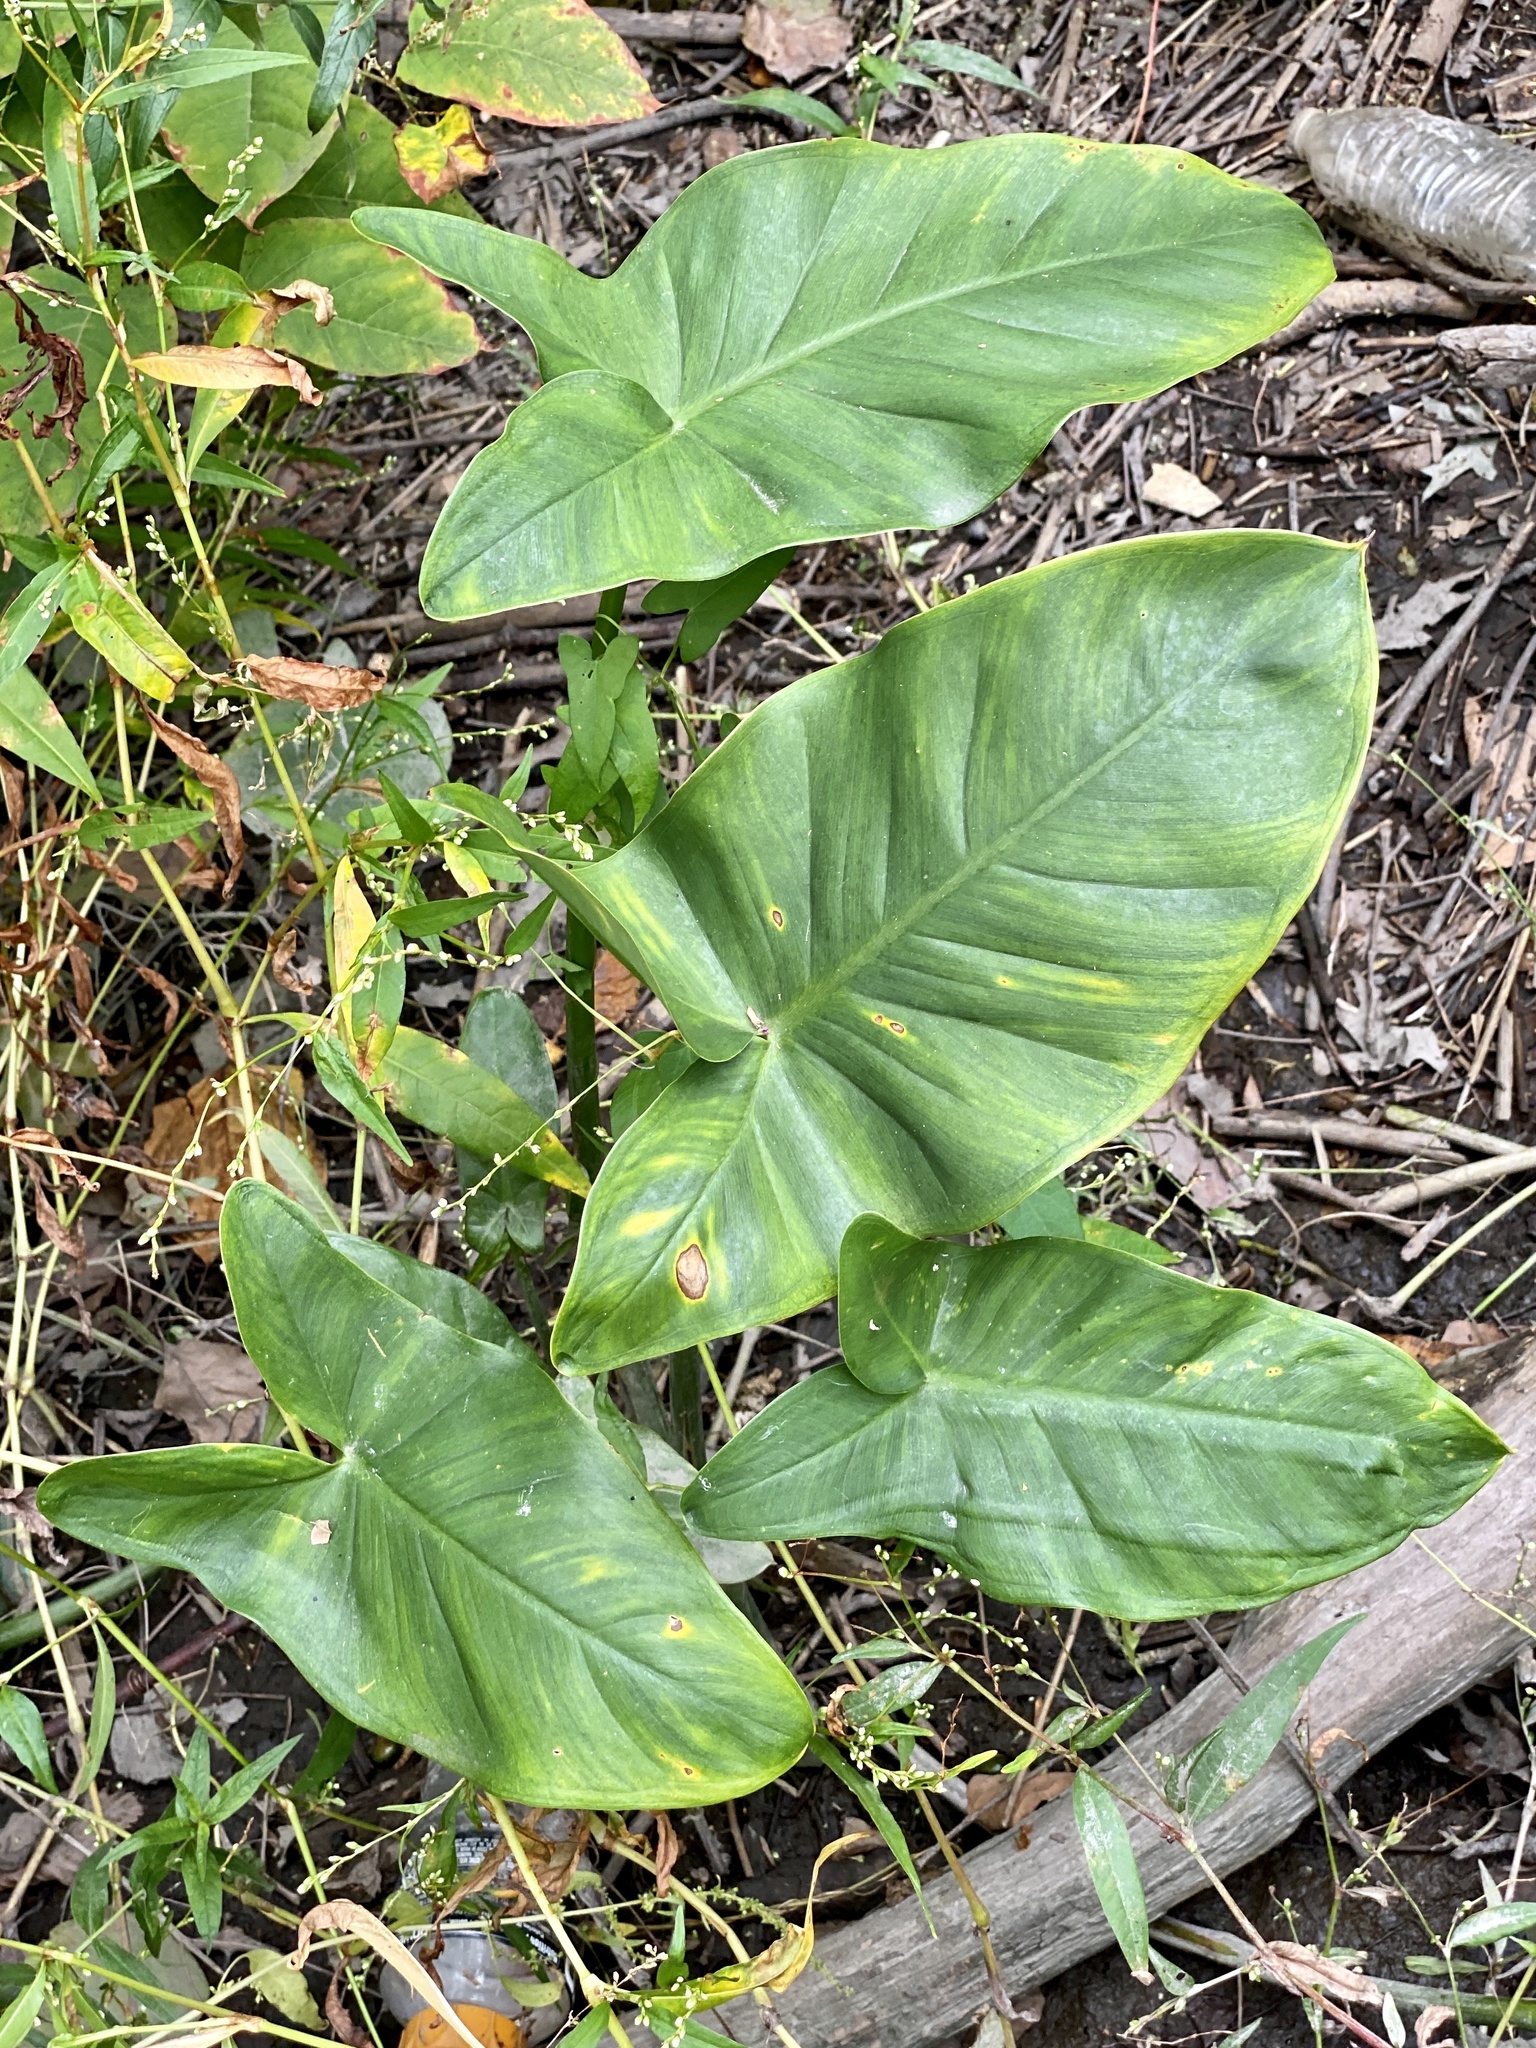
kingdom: Plantae
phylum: Tracheophyta
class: Liliopsida
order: Alismatales
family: Araceae
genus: Peltandra
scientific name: Peltandra virginica
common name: Arrow arum
